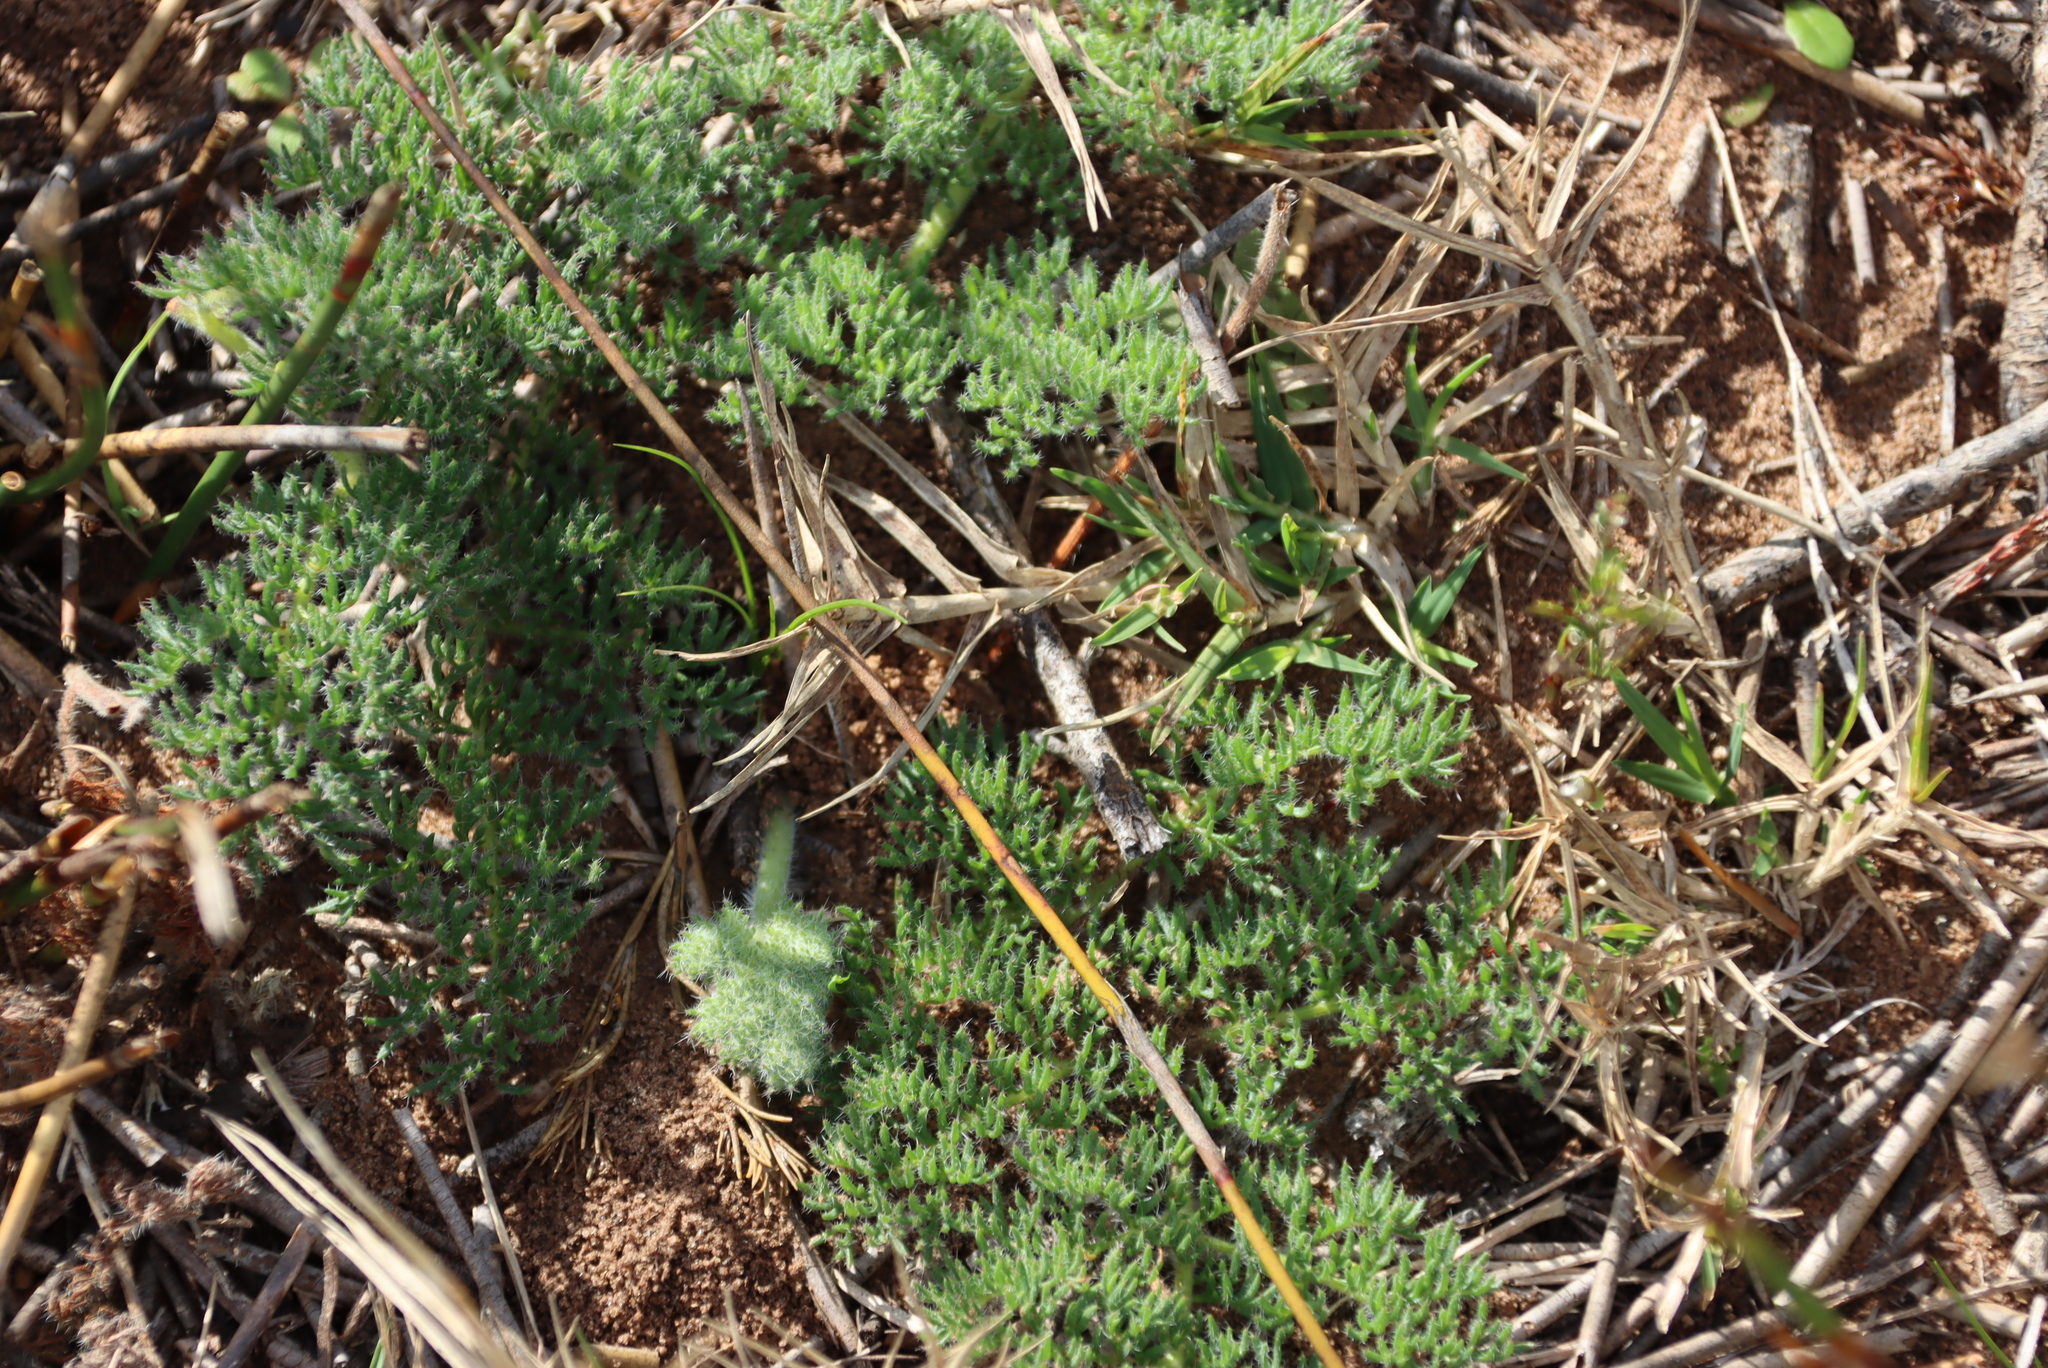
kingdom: Plantae
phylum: Tracheophyta
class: Magnoliopsida
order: Geraniales
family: Geraniaceae
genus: Pelargonium
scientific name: Pelargonium triste
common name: Night-scent pelargonium
